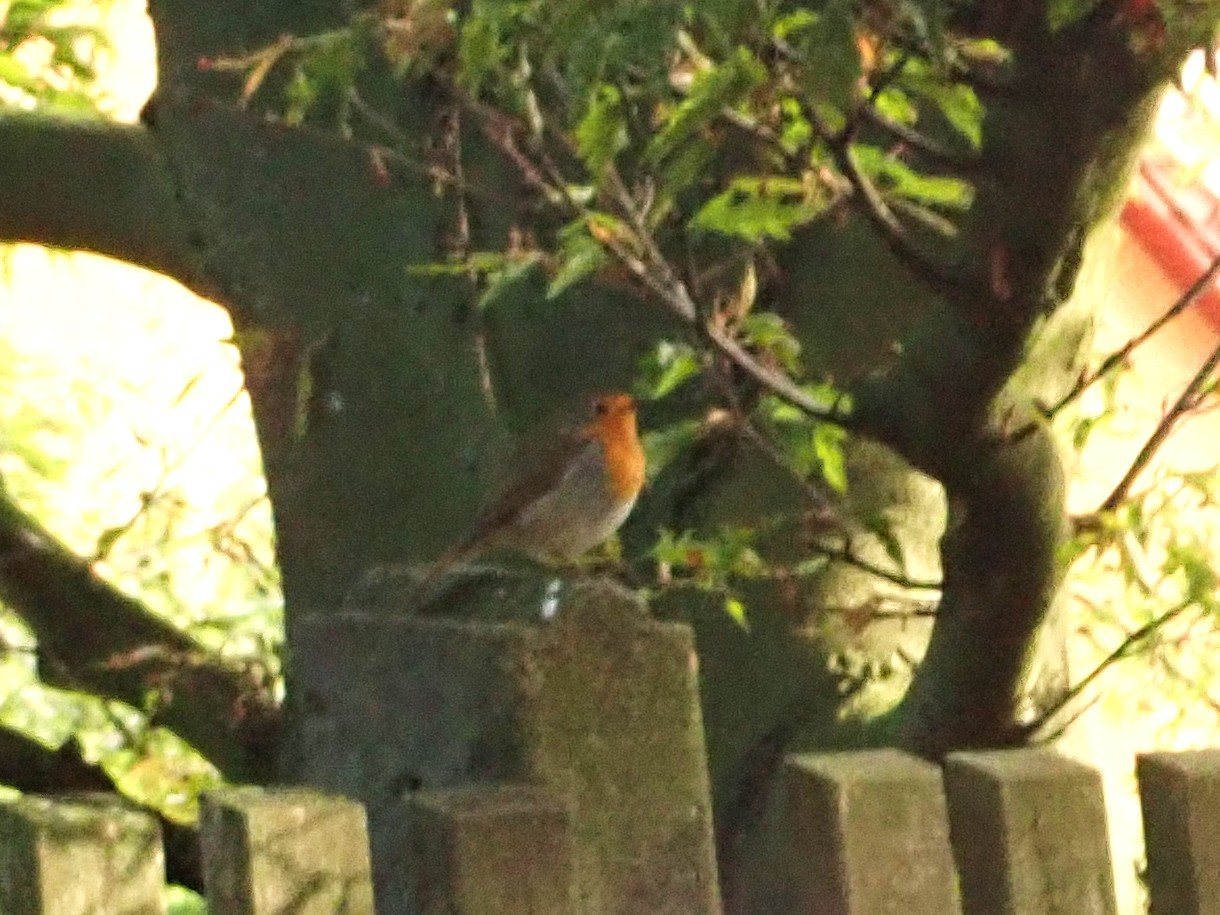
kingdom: Animalia
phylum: Chordata
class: Aves
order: Passeriformes
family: Muscicapidae
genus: Erithacus
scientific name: Erithacus rubecula
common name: European robin
